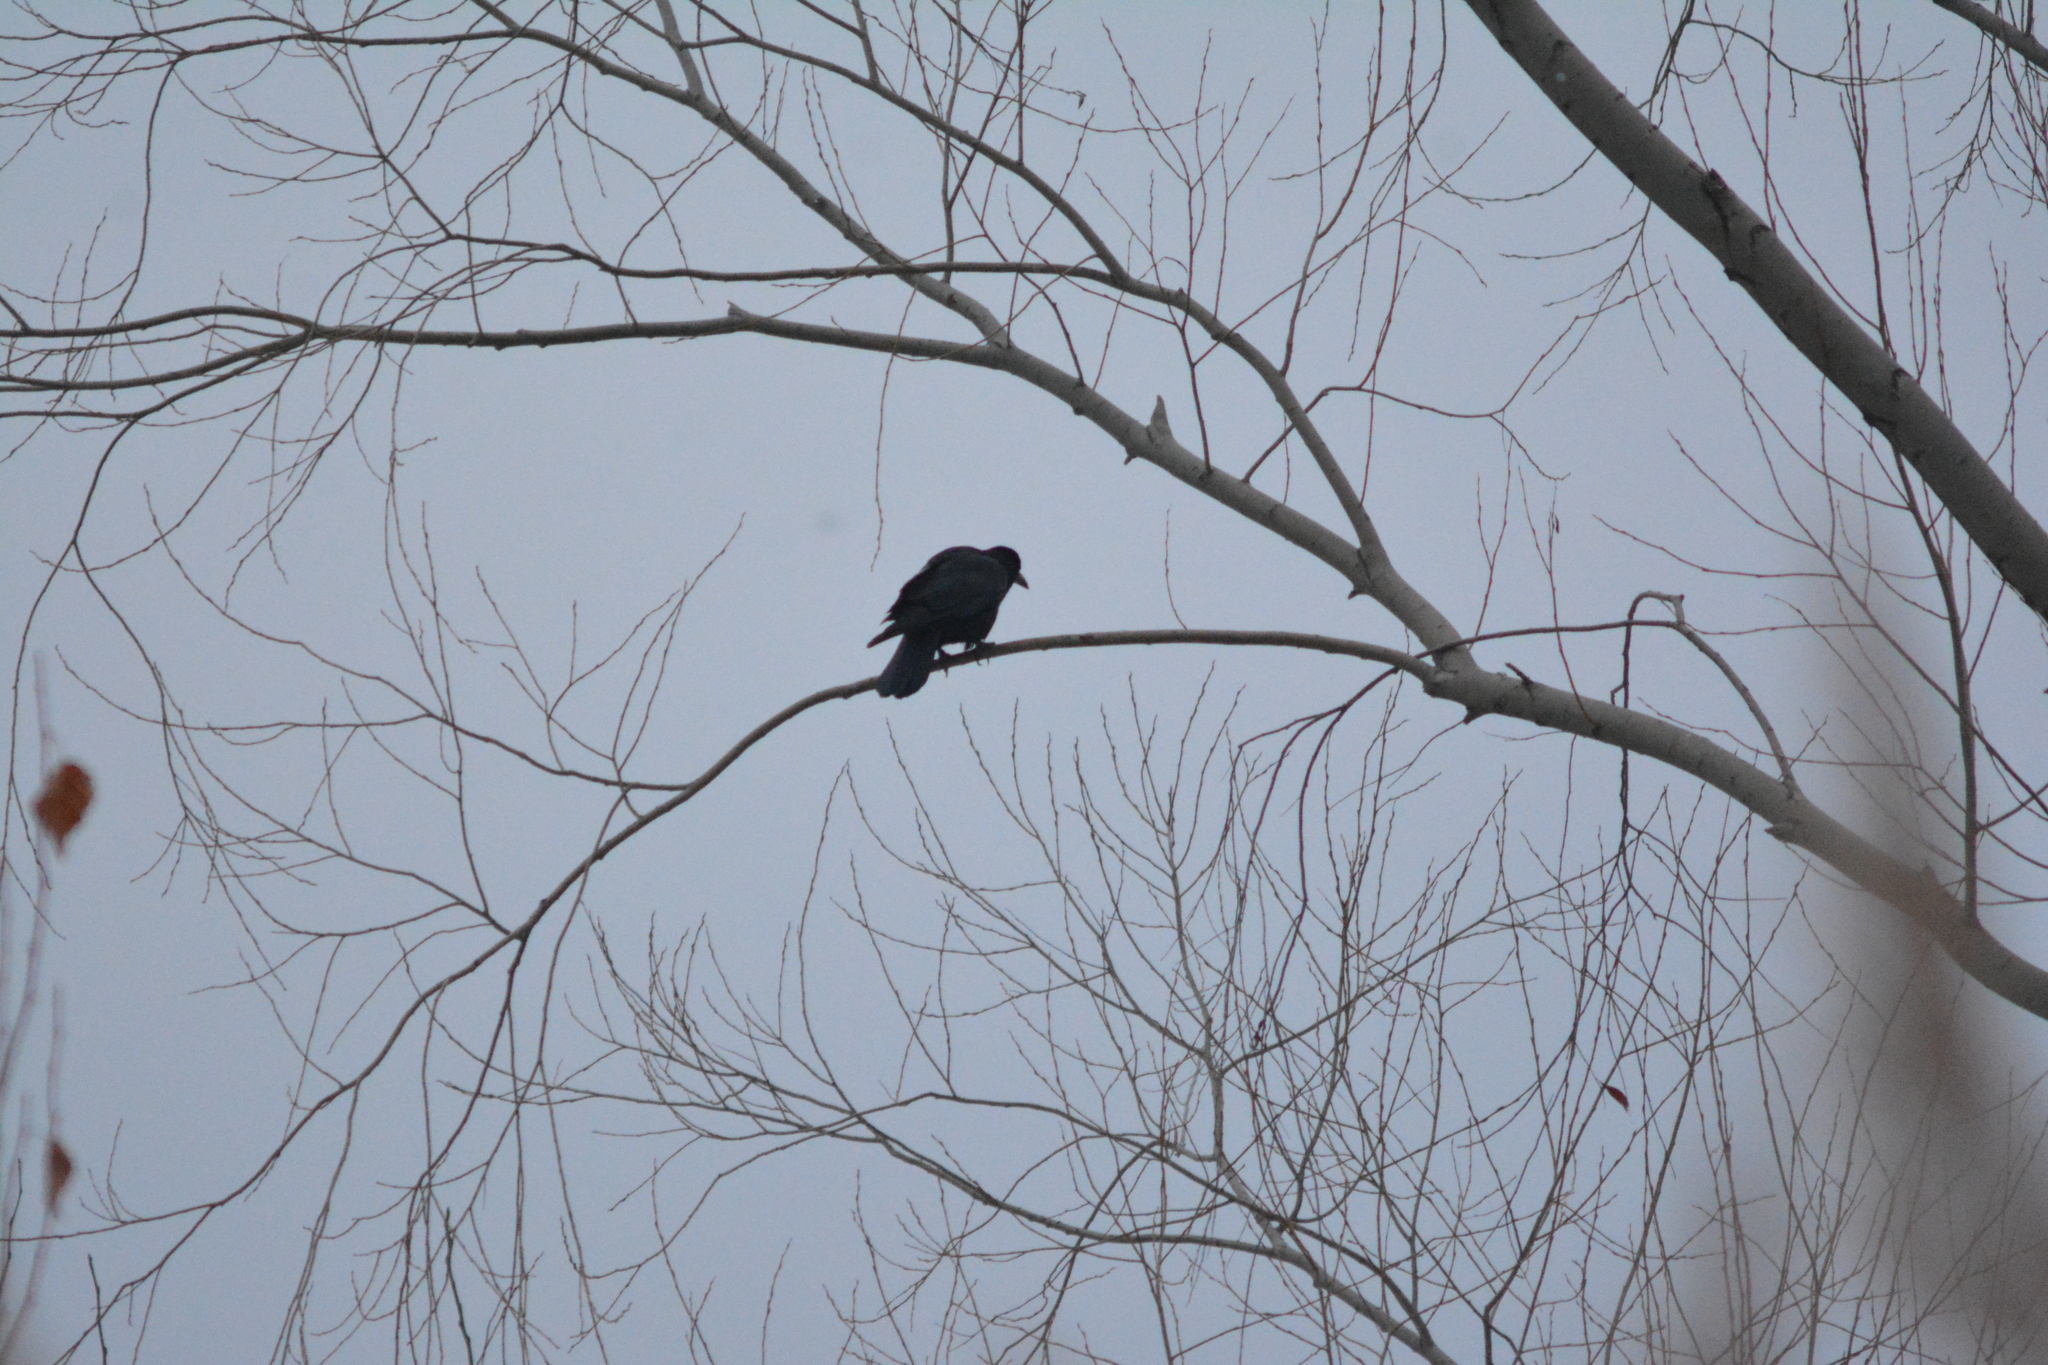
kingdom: Animalia
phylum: Chordata
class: Aves
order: Passeriformes
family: Corvidae
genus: Corvus
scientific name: Corvus frugilegus
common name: Rook
